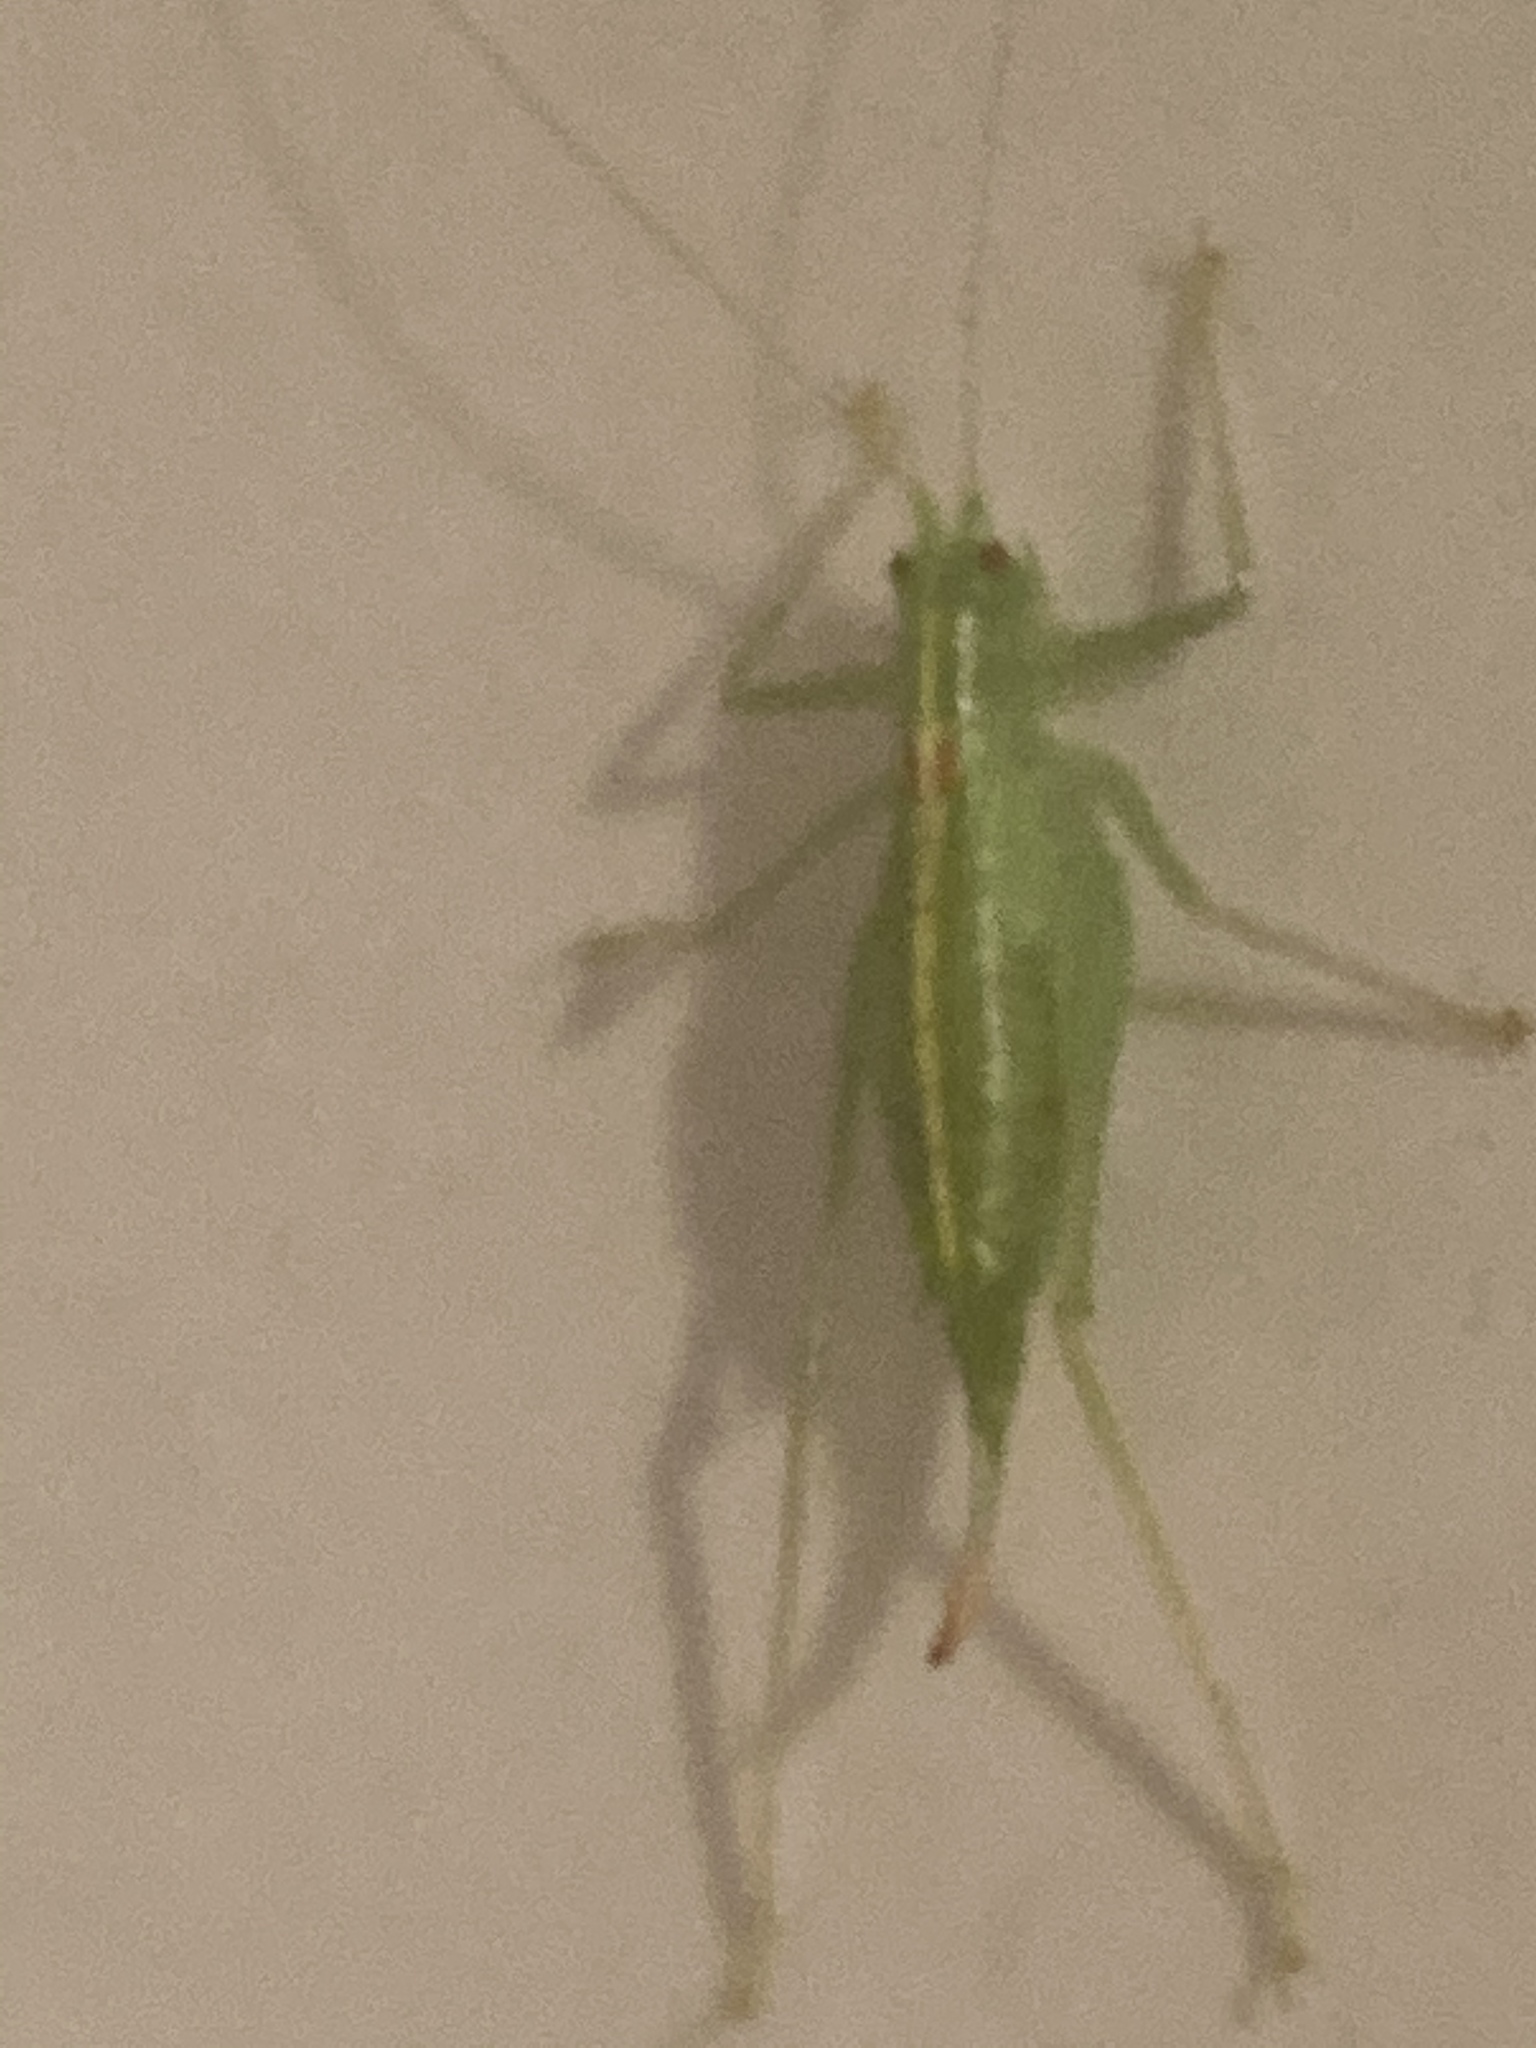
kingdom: Animalia
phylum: Arthropoda
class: Insecta
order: Orthoptera
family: Tettigoniidae
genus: Meconema
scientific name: Meconema meridionale
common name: Southern oak bush-cricket
